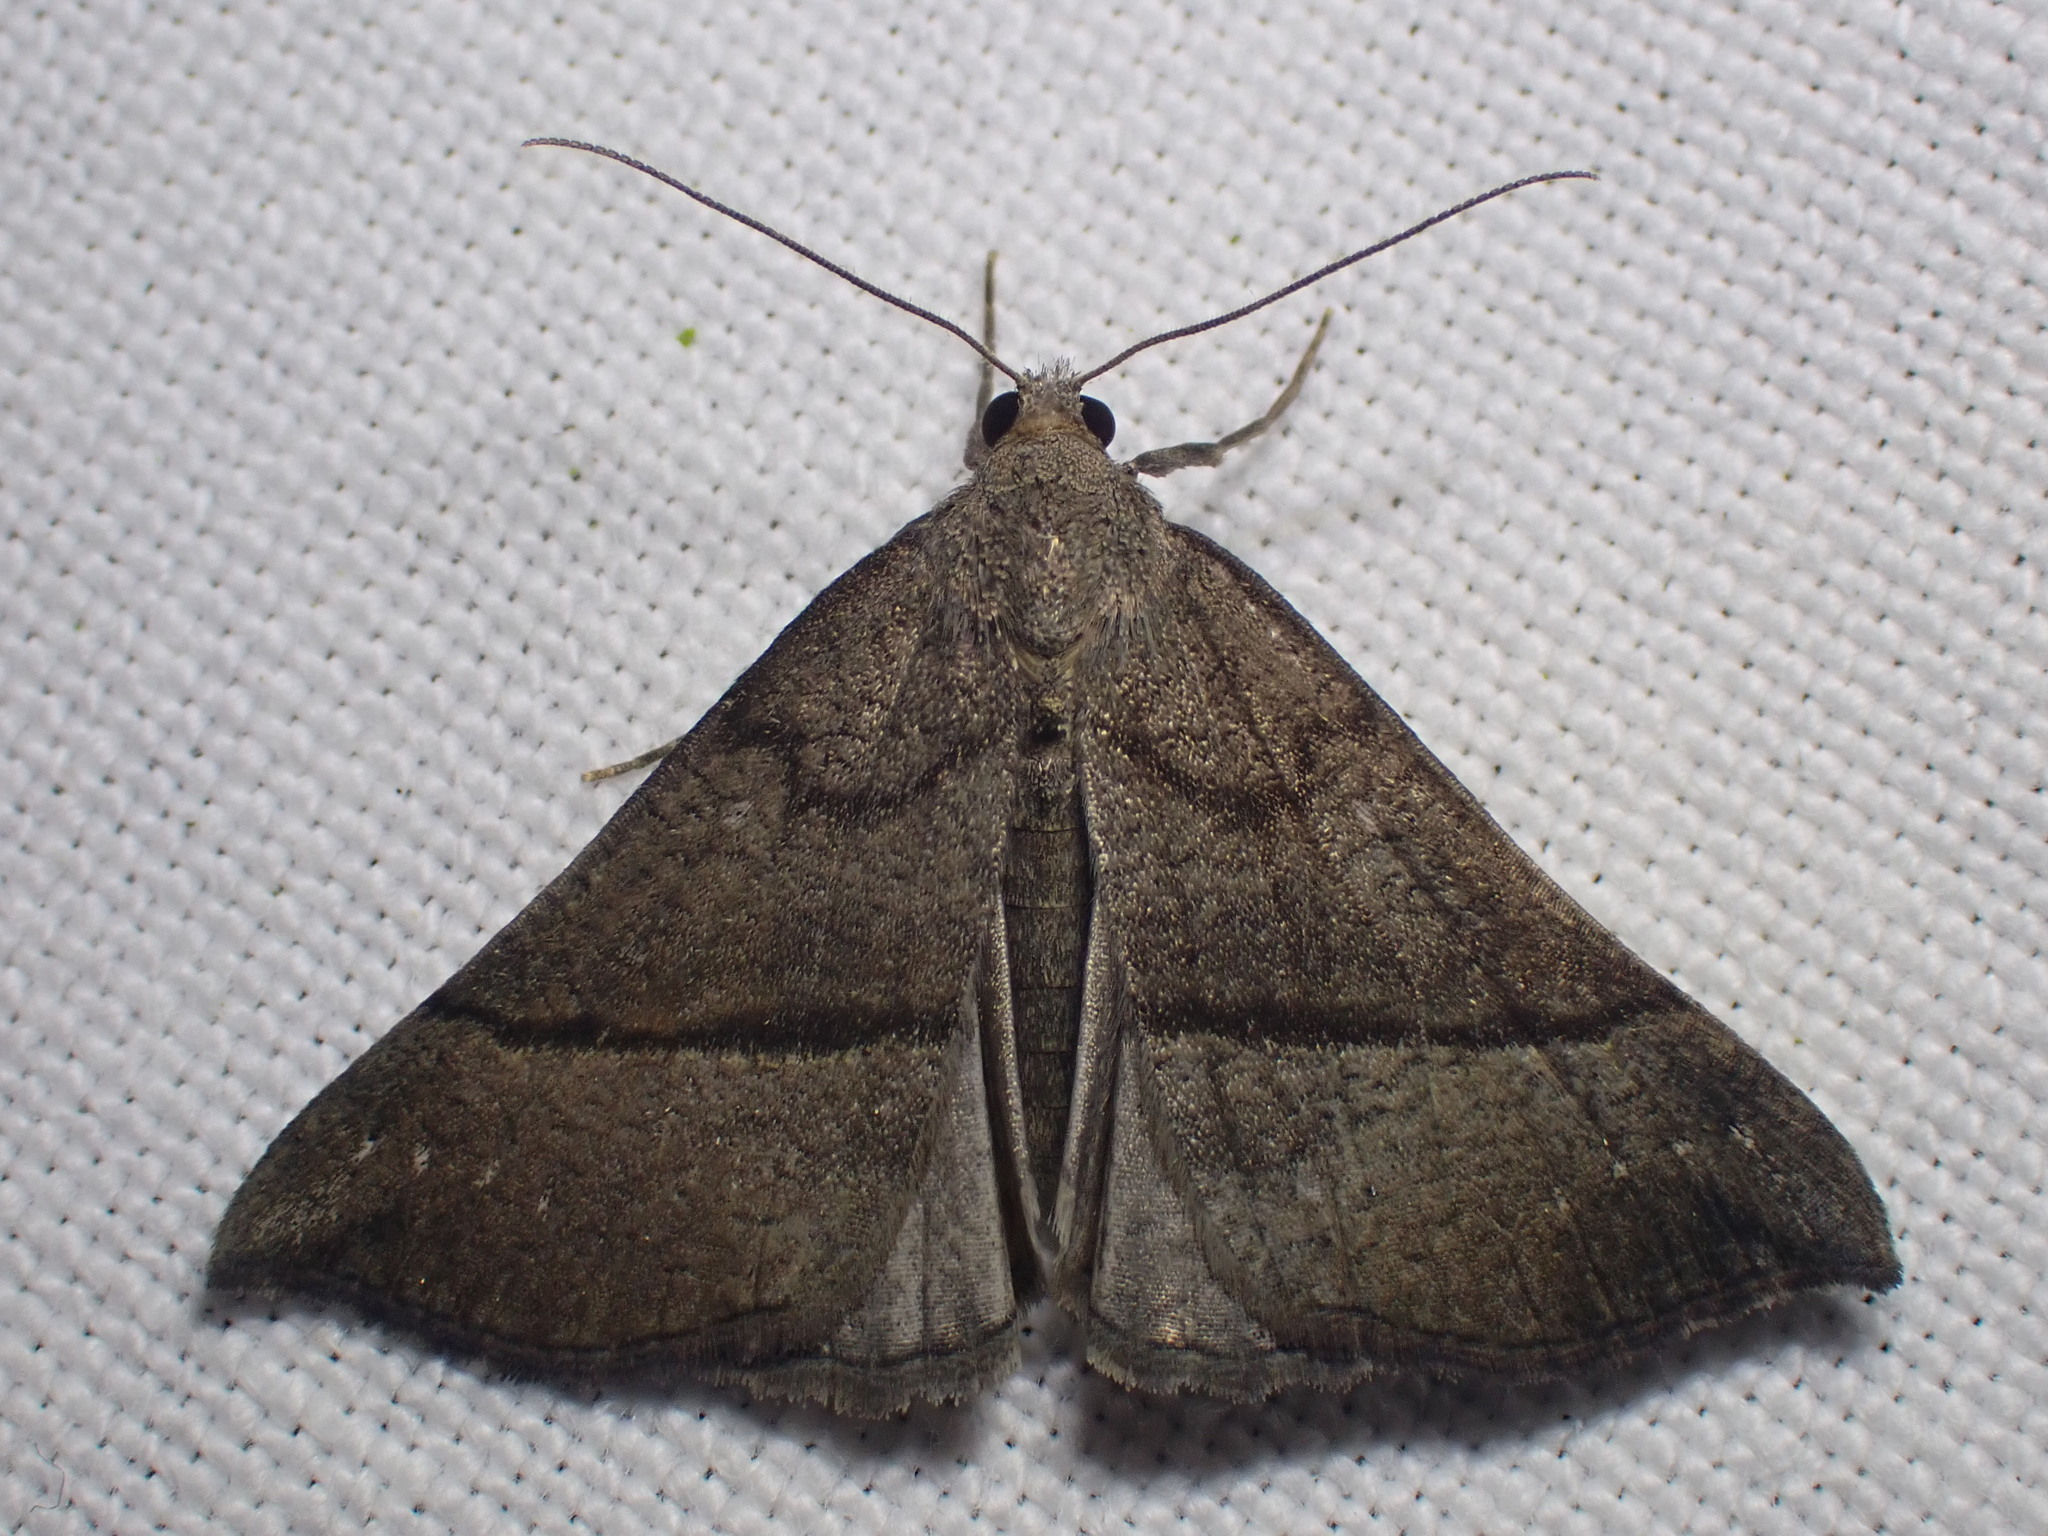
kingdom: Animalia
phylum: Arthropoda
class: Insecta
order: Lepidoptera
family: Erebidae
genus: Hypena
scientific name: Hypena proboscidalis
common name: Snout
